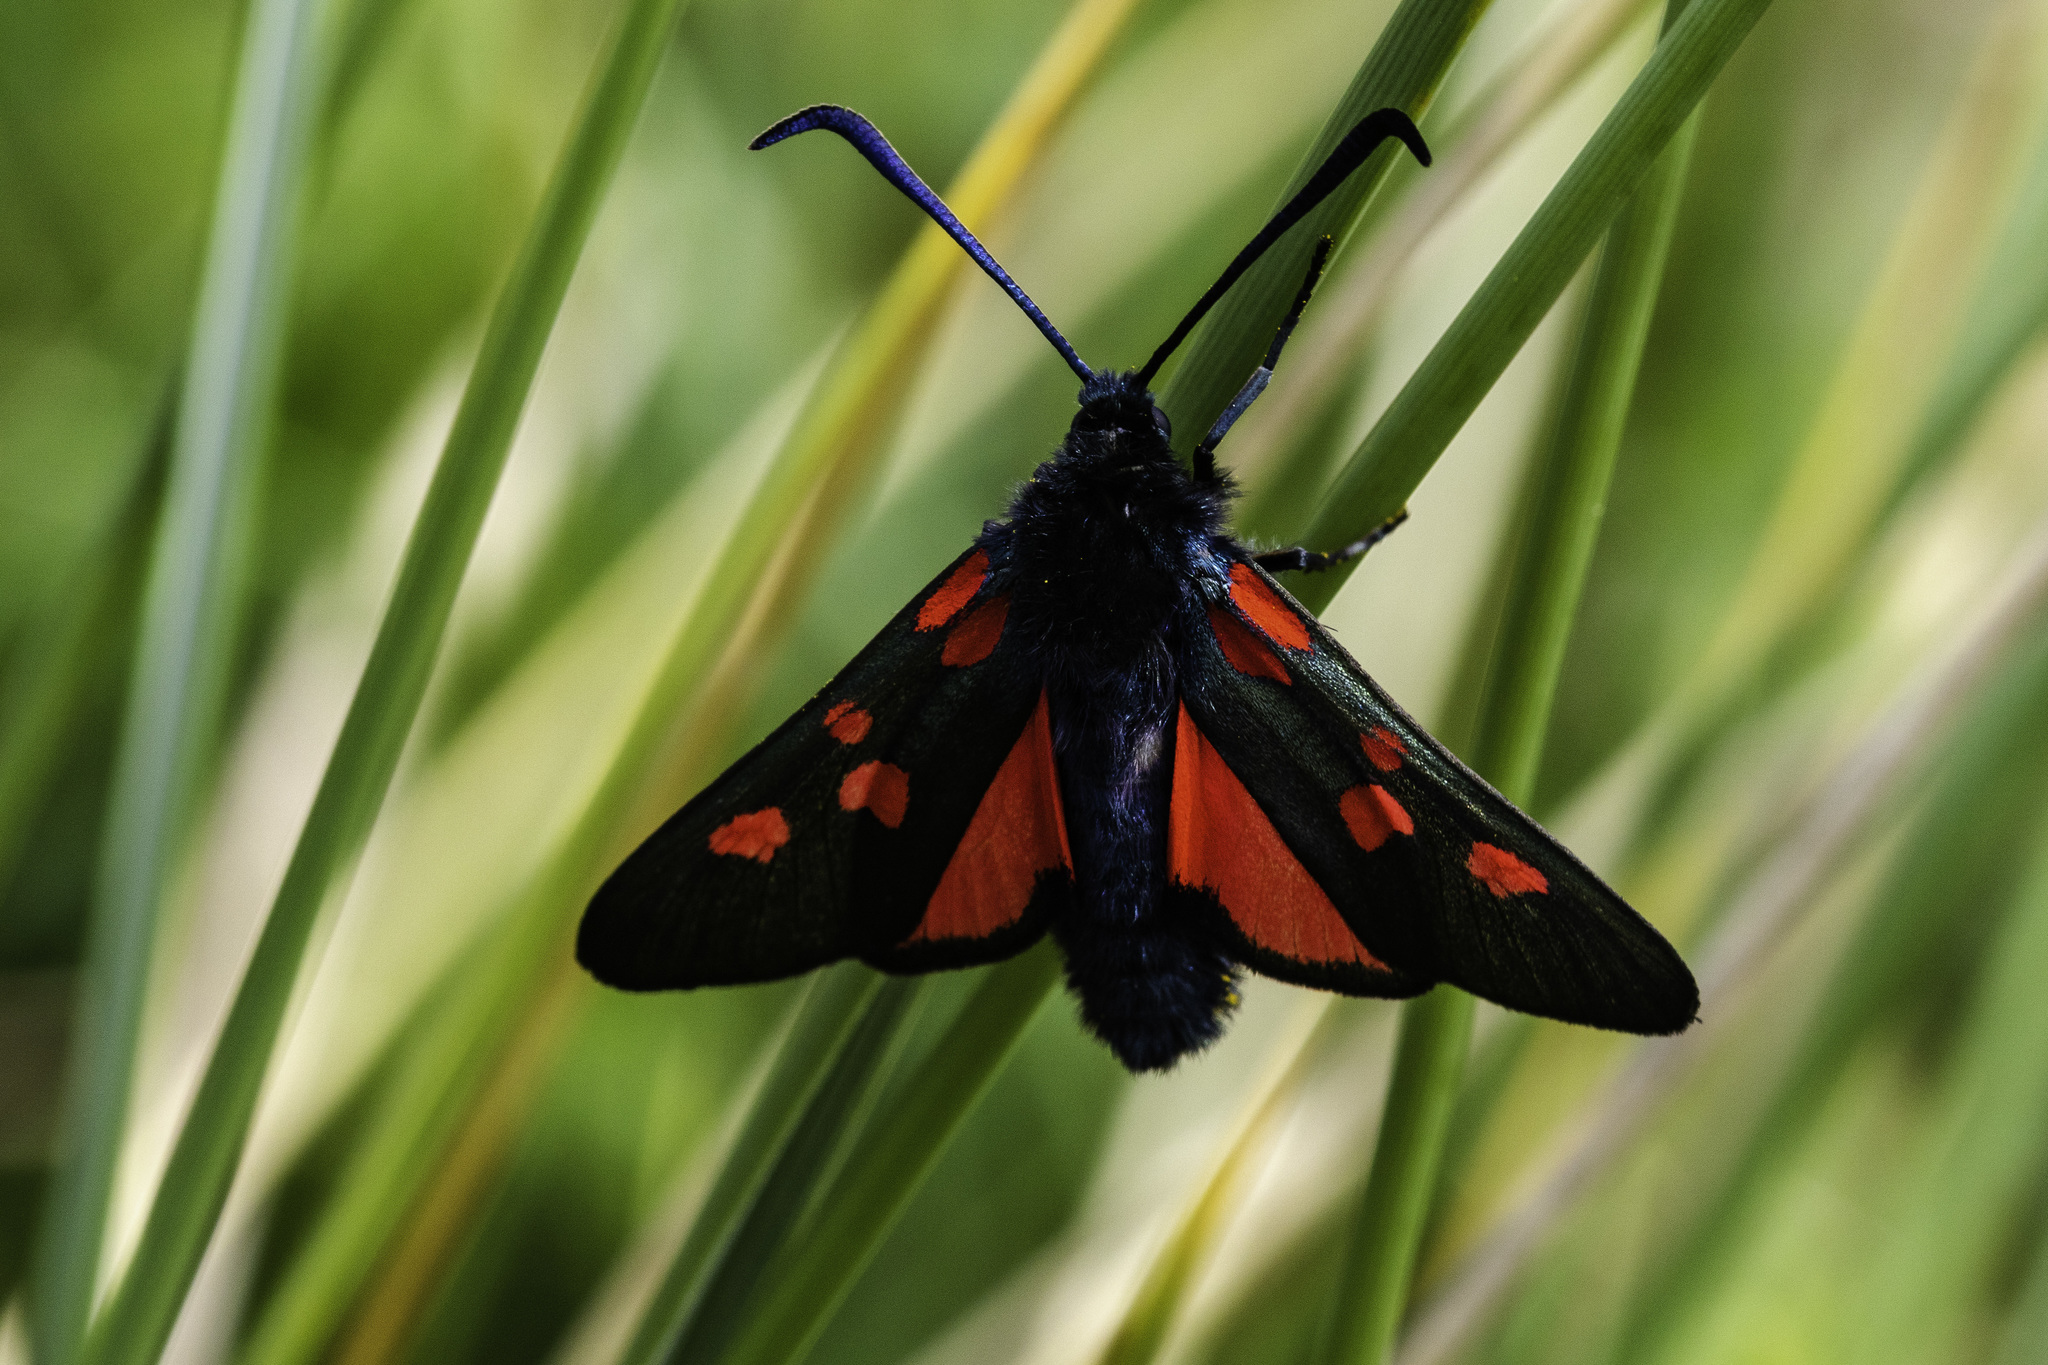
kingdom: Animalia
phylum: Arthropoda
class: Insecta
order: Lepidoptera
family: Zygaenidae
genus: Zygaena
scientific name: Zygaena lonicerae
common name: Narrow-bordered five-spot burnet
